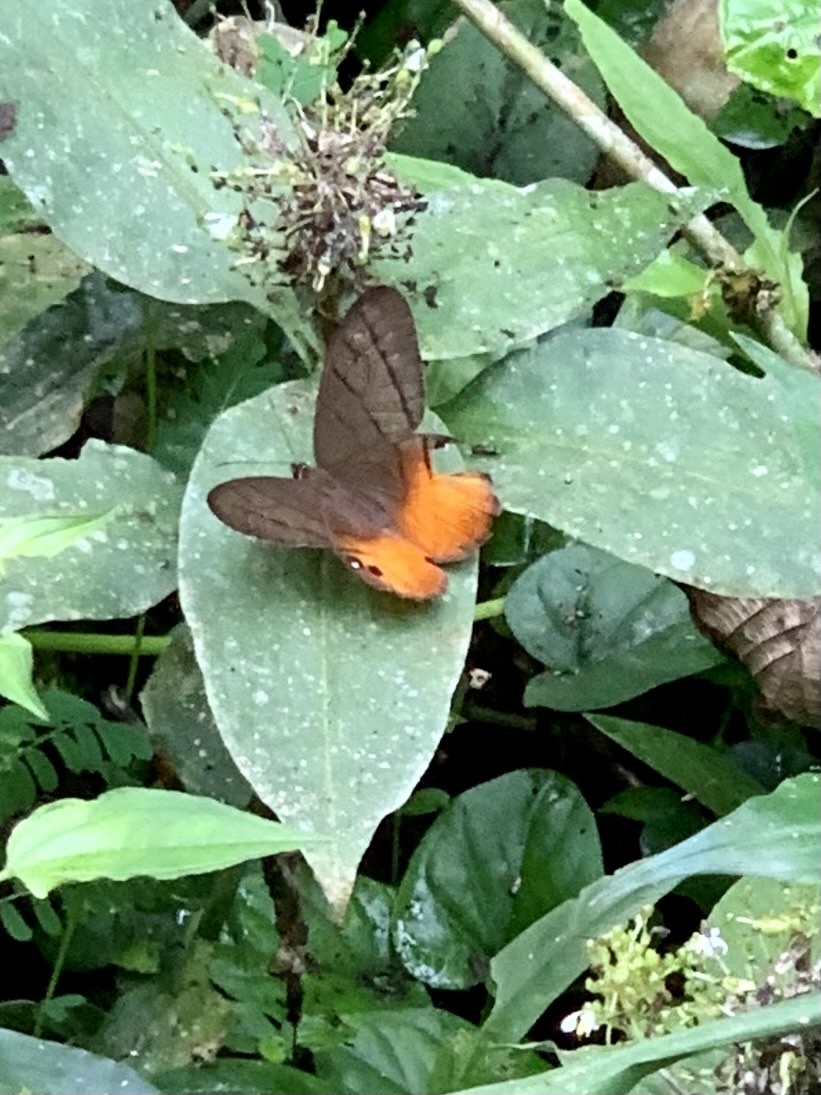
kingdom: Animalia
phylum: Arthropoda
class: Insecta
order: Lepidoptera
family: Nymphalidae
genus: Pierella
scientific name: Pierella luna
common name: Moon satyr
